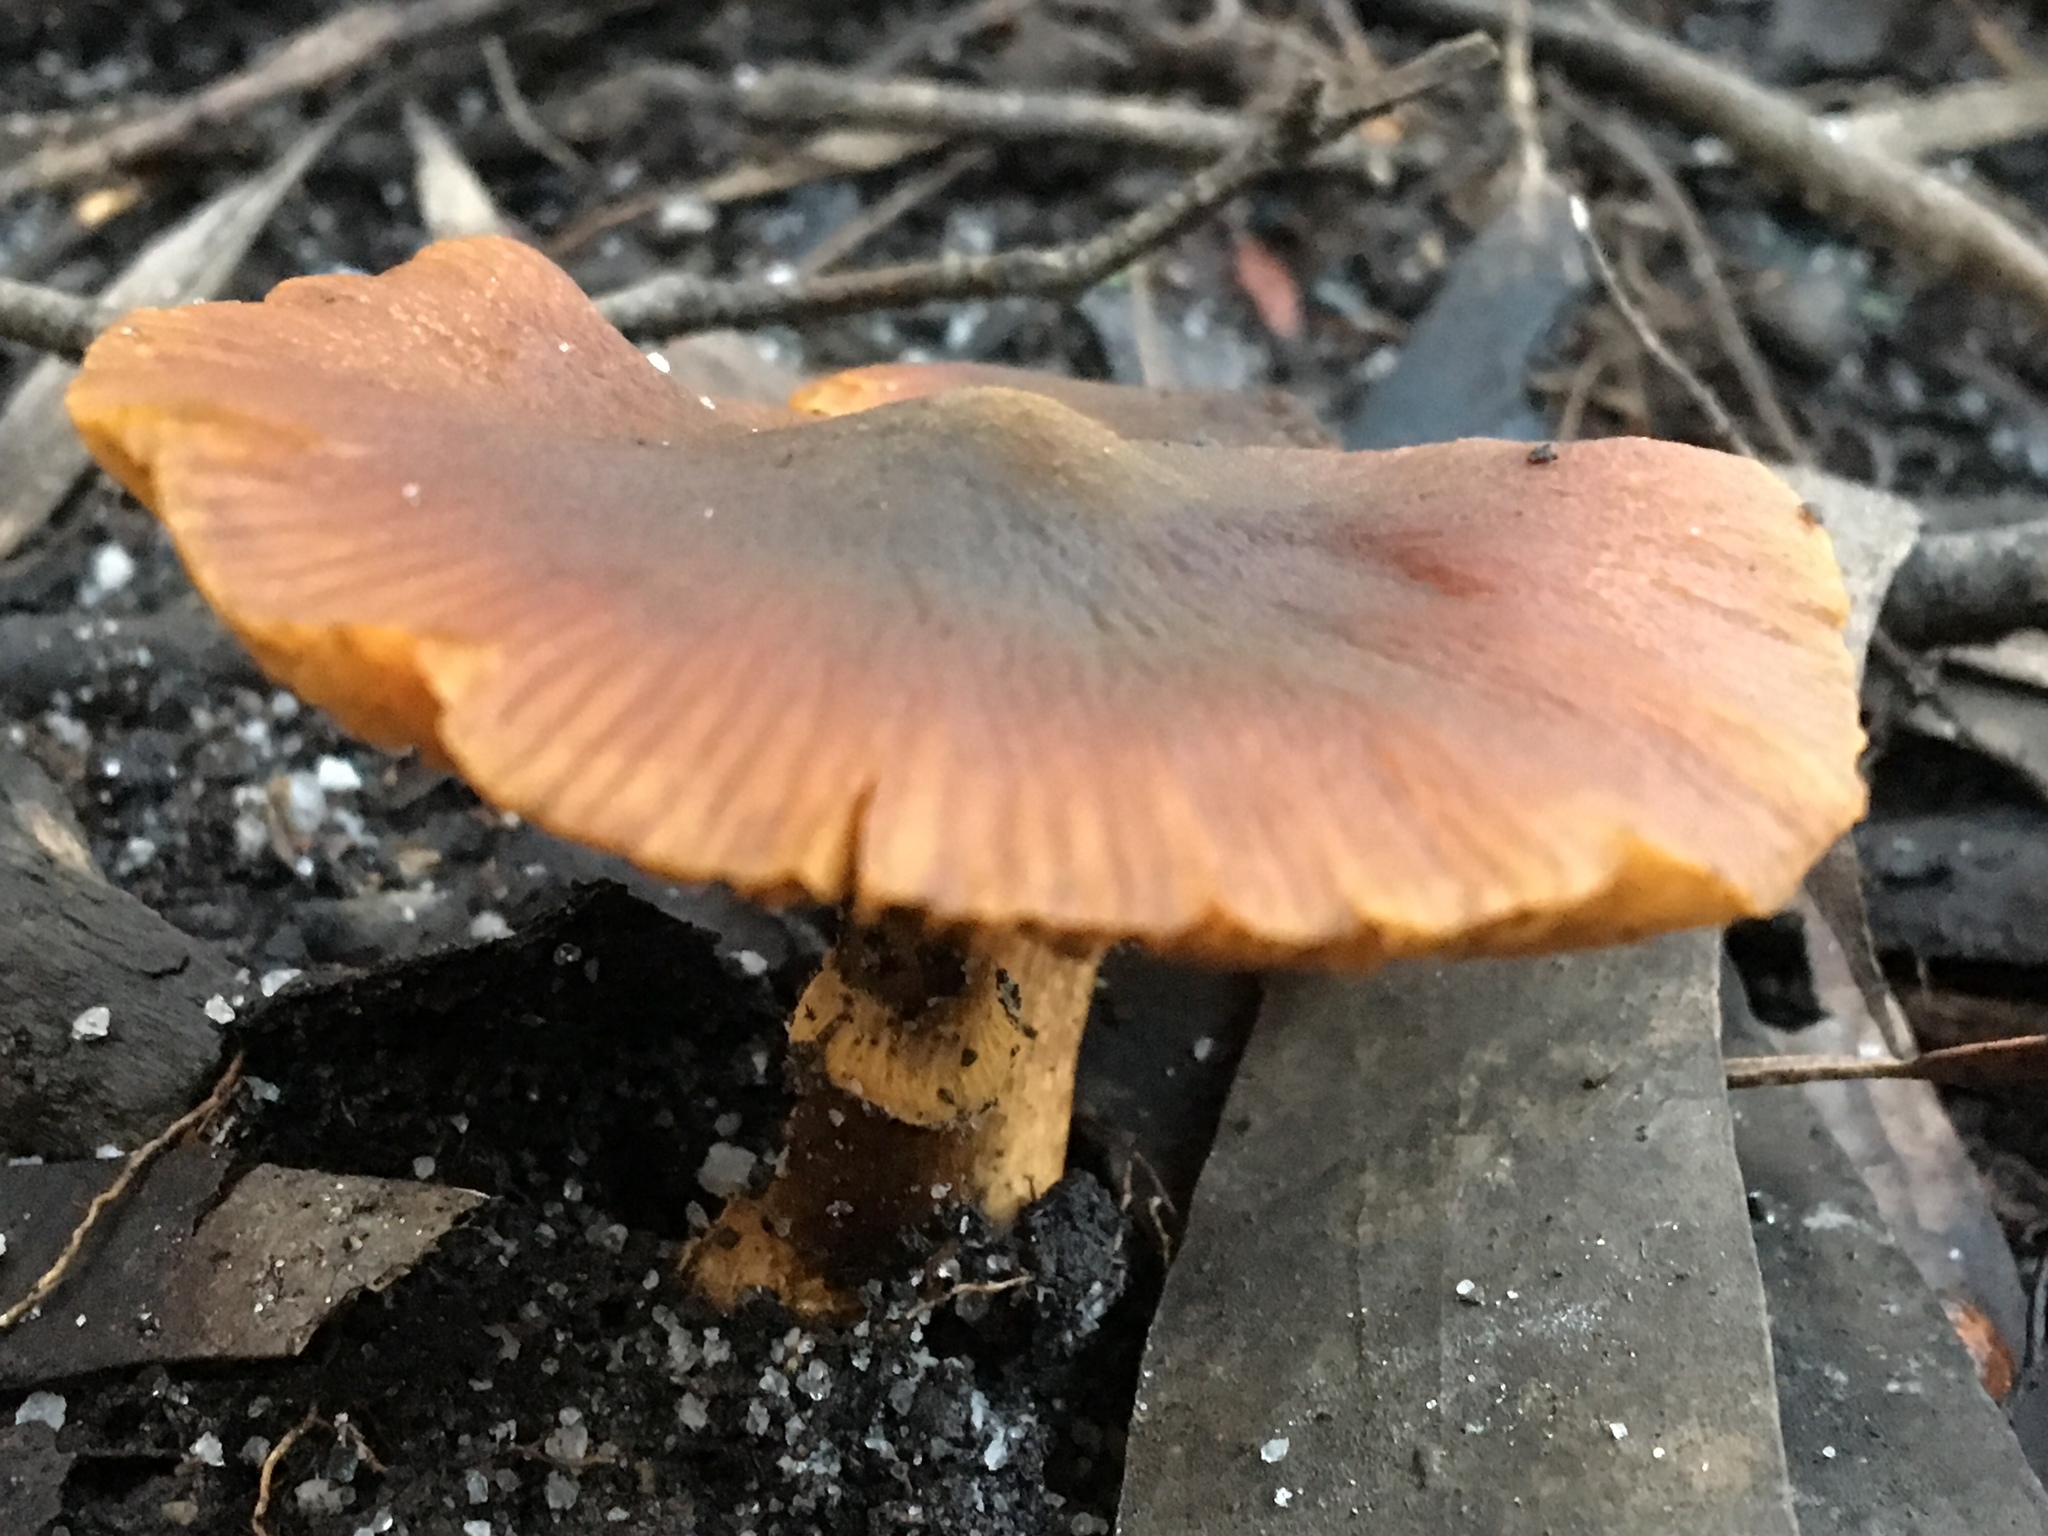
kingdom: Fungi
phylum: Basidiomycota
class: Agaricomycetes
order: Agaricales
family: Bolbitiaceae
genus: Descolea
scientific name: Descolea recedens
